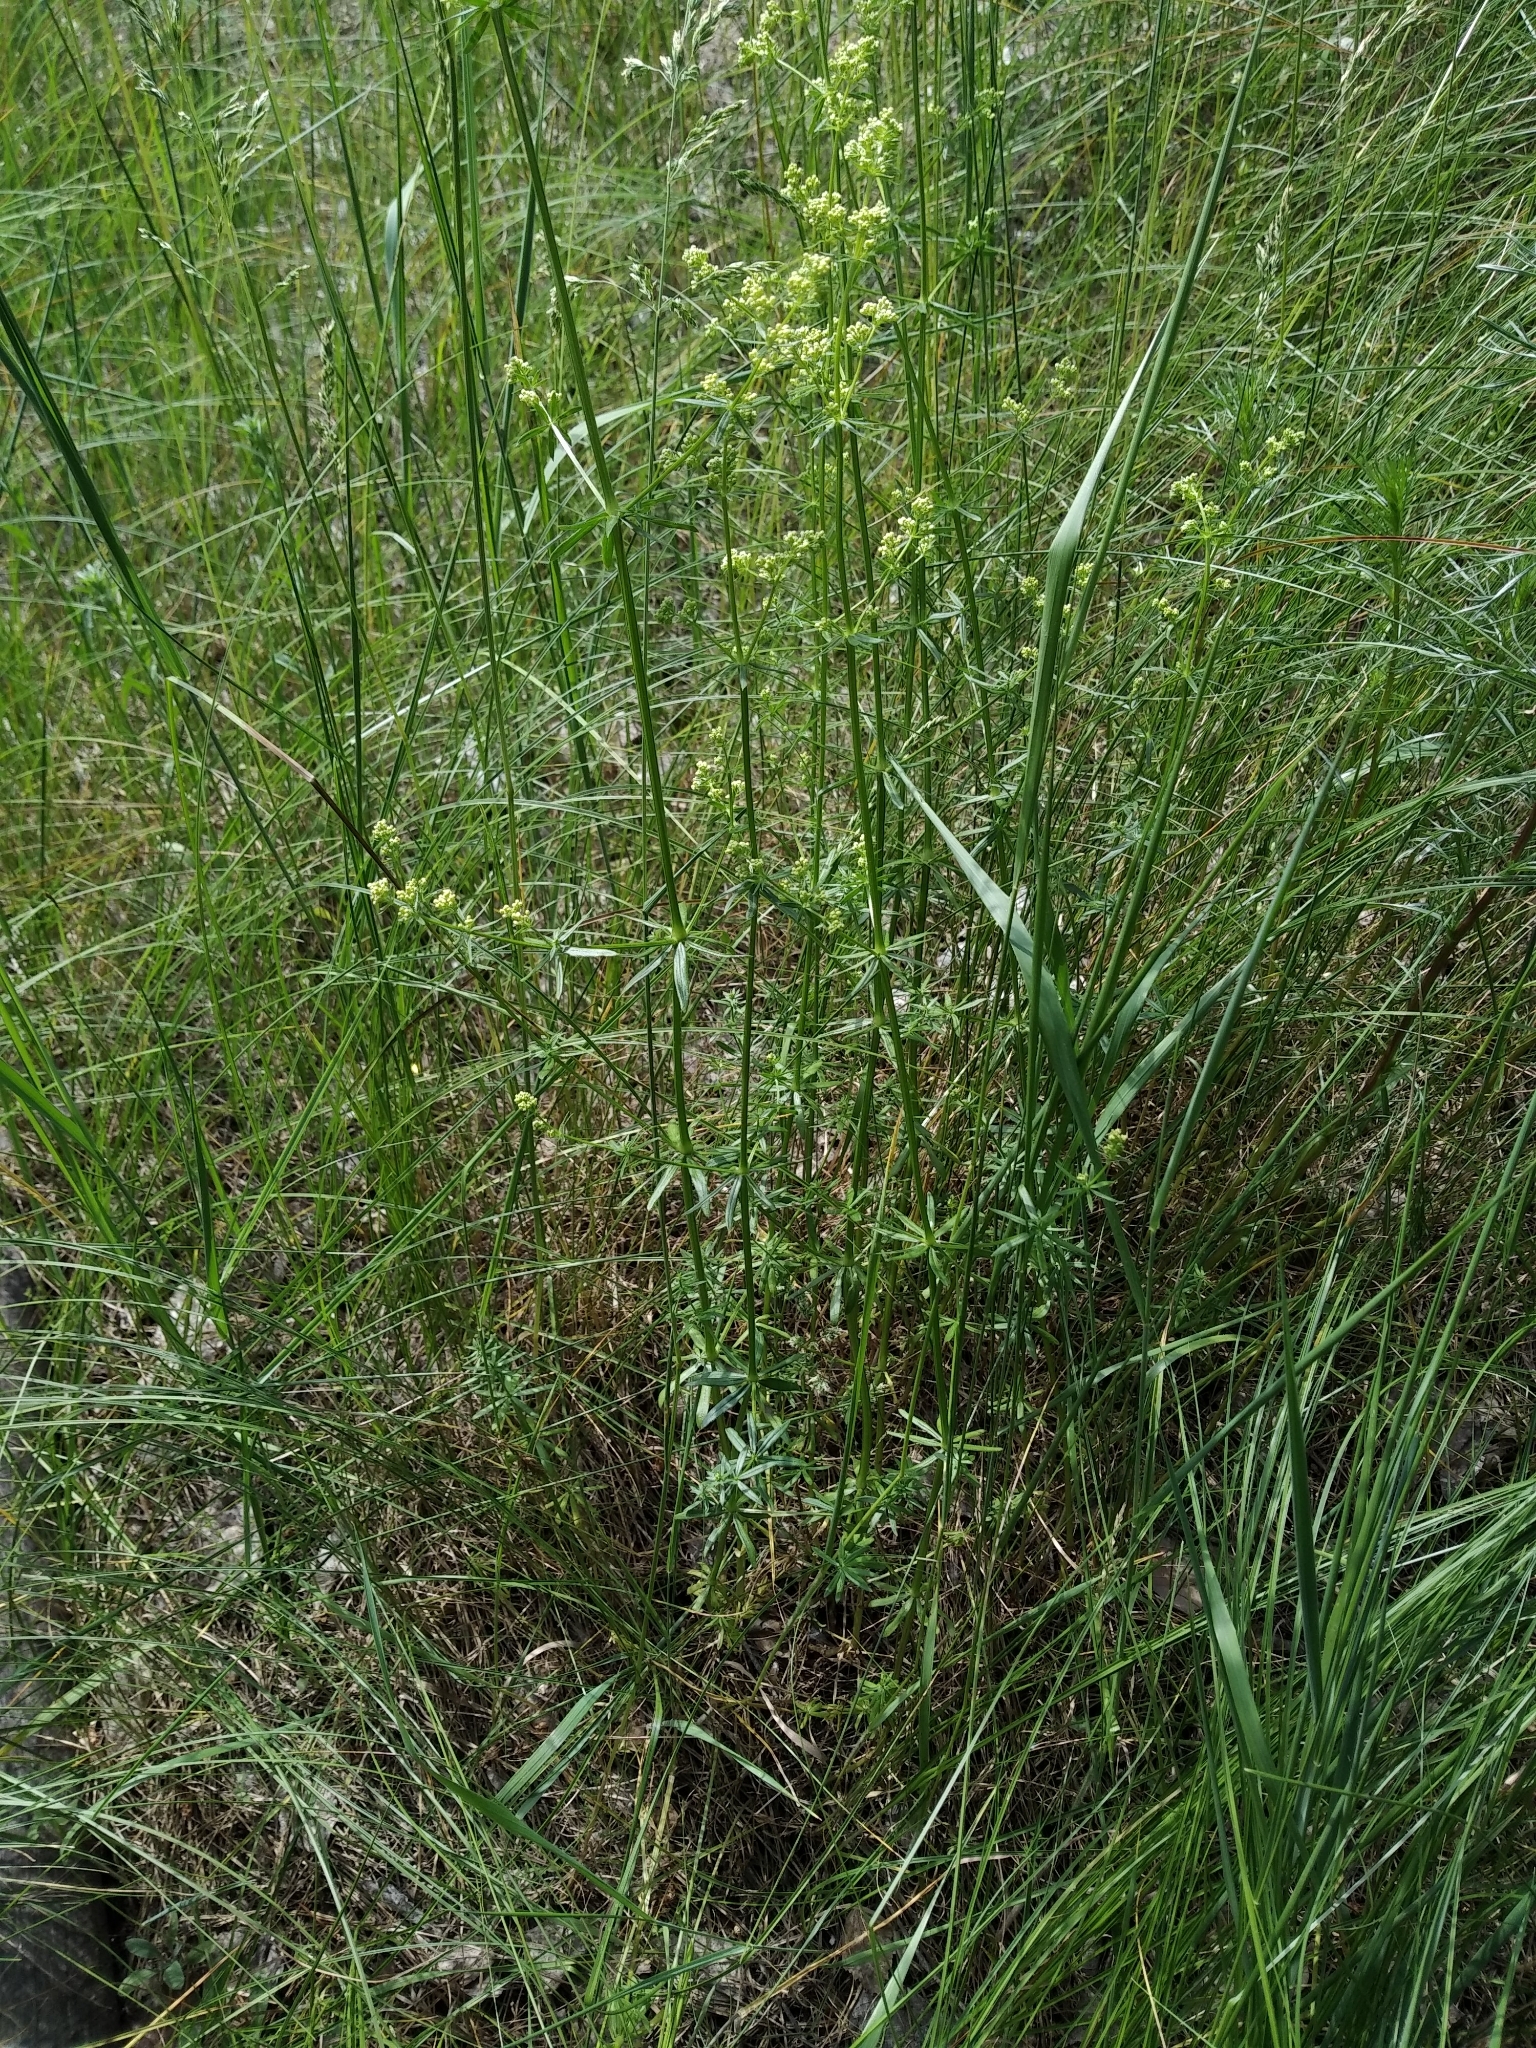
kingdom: Plantae
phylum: Tracheophyta
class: Magnoliopsida
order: Gentianales
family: Rubiaceae
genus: Galium
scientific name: Galium mollugo
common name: Hedge bedstraw
